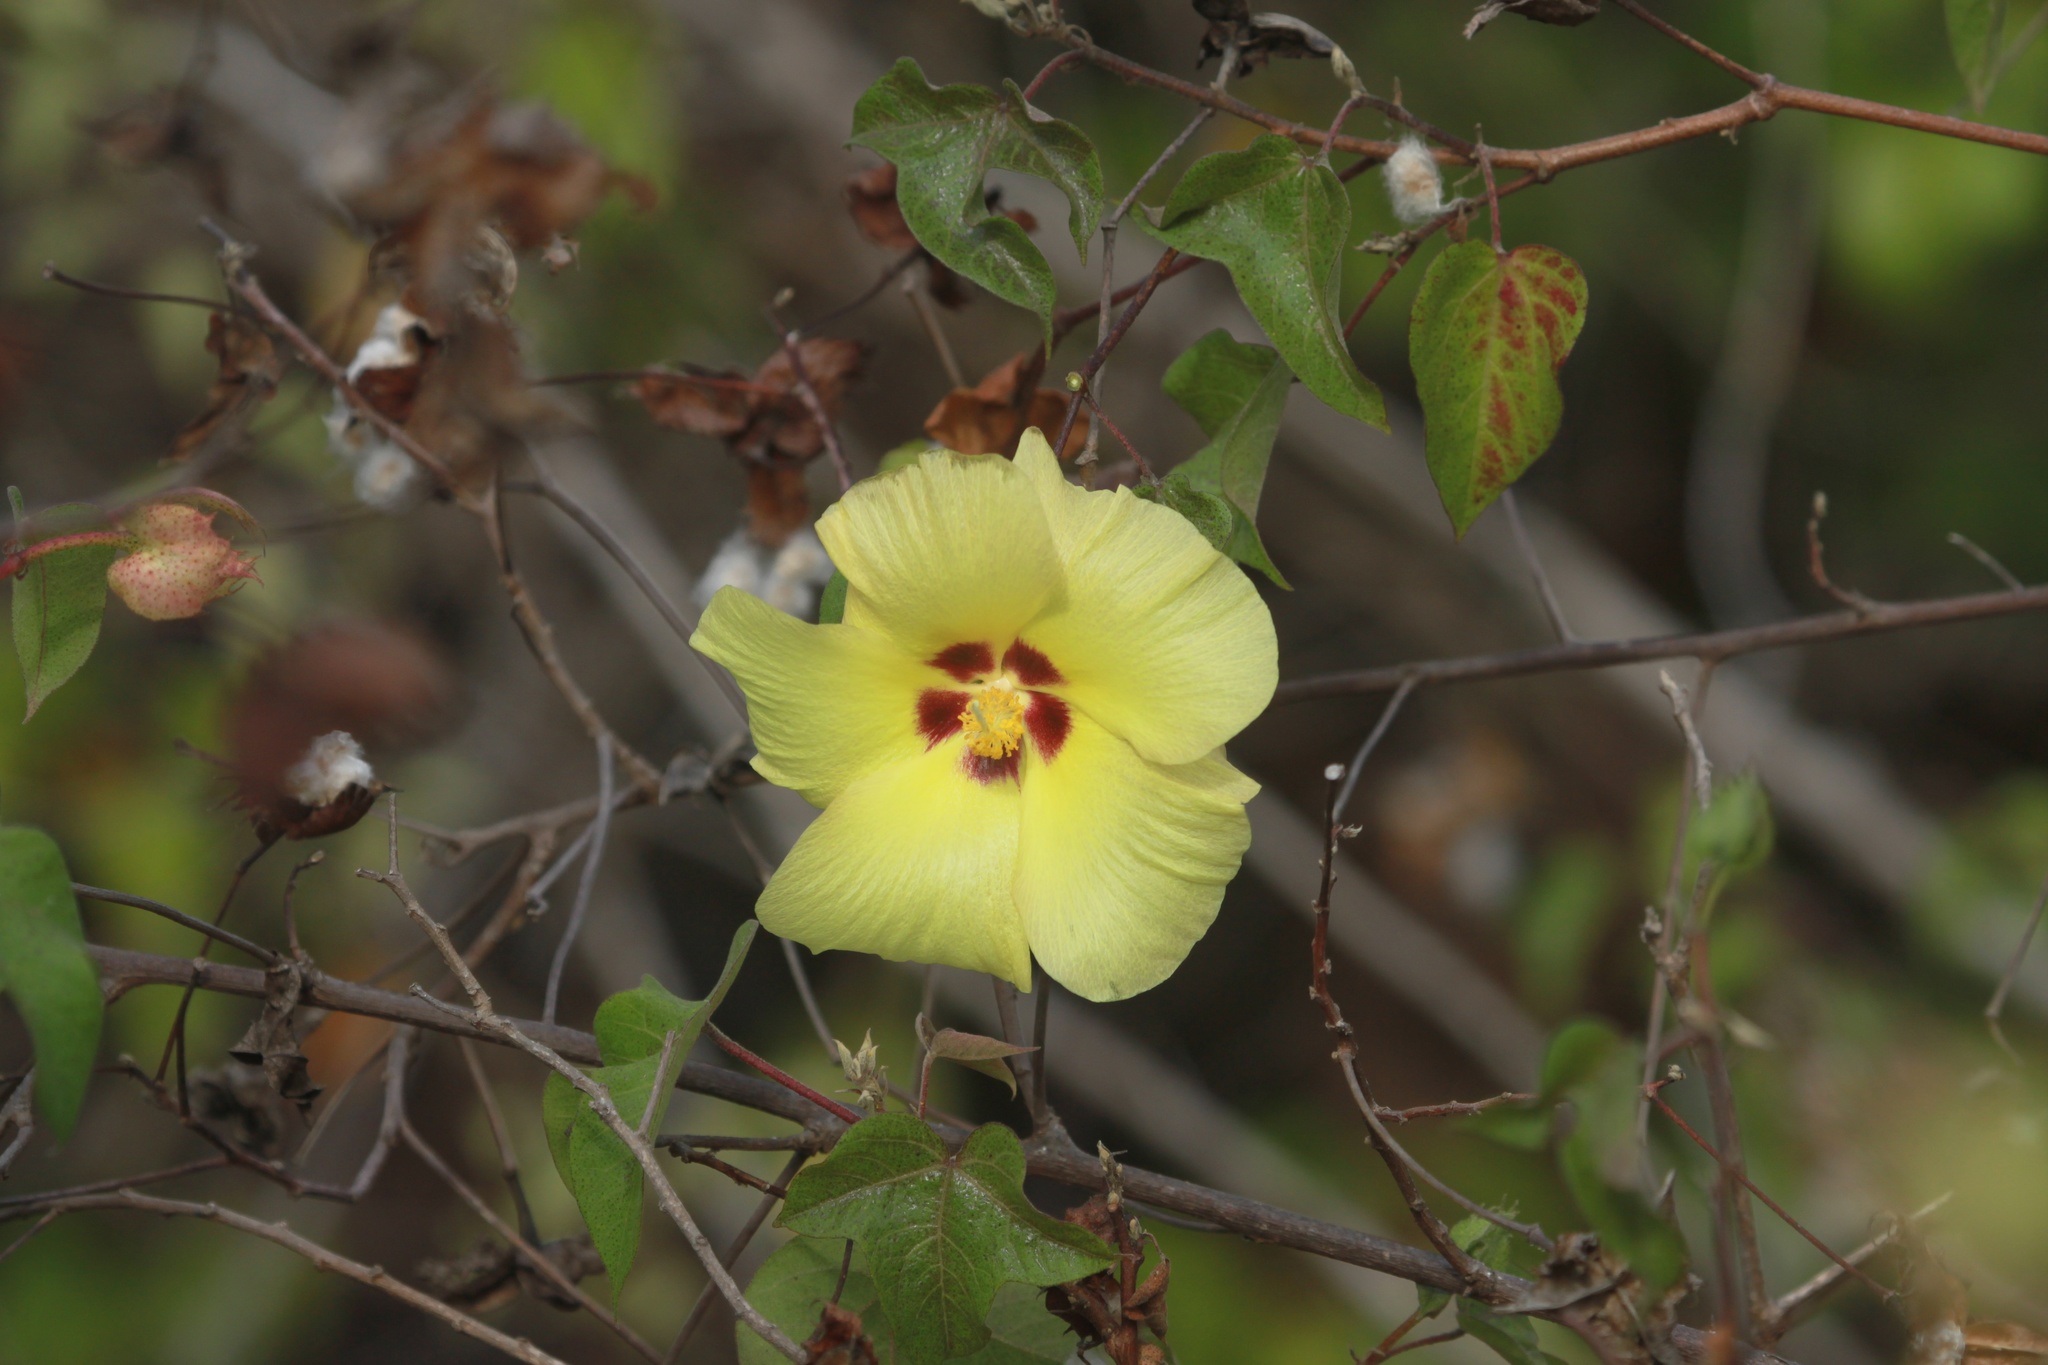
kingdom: Plantae
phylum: Tracheophyta
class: Magnoliopsida
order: Malvales
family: Malvaceae
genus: Gossypium
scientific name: Gossypium darwinii
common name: Darwin's cotton
